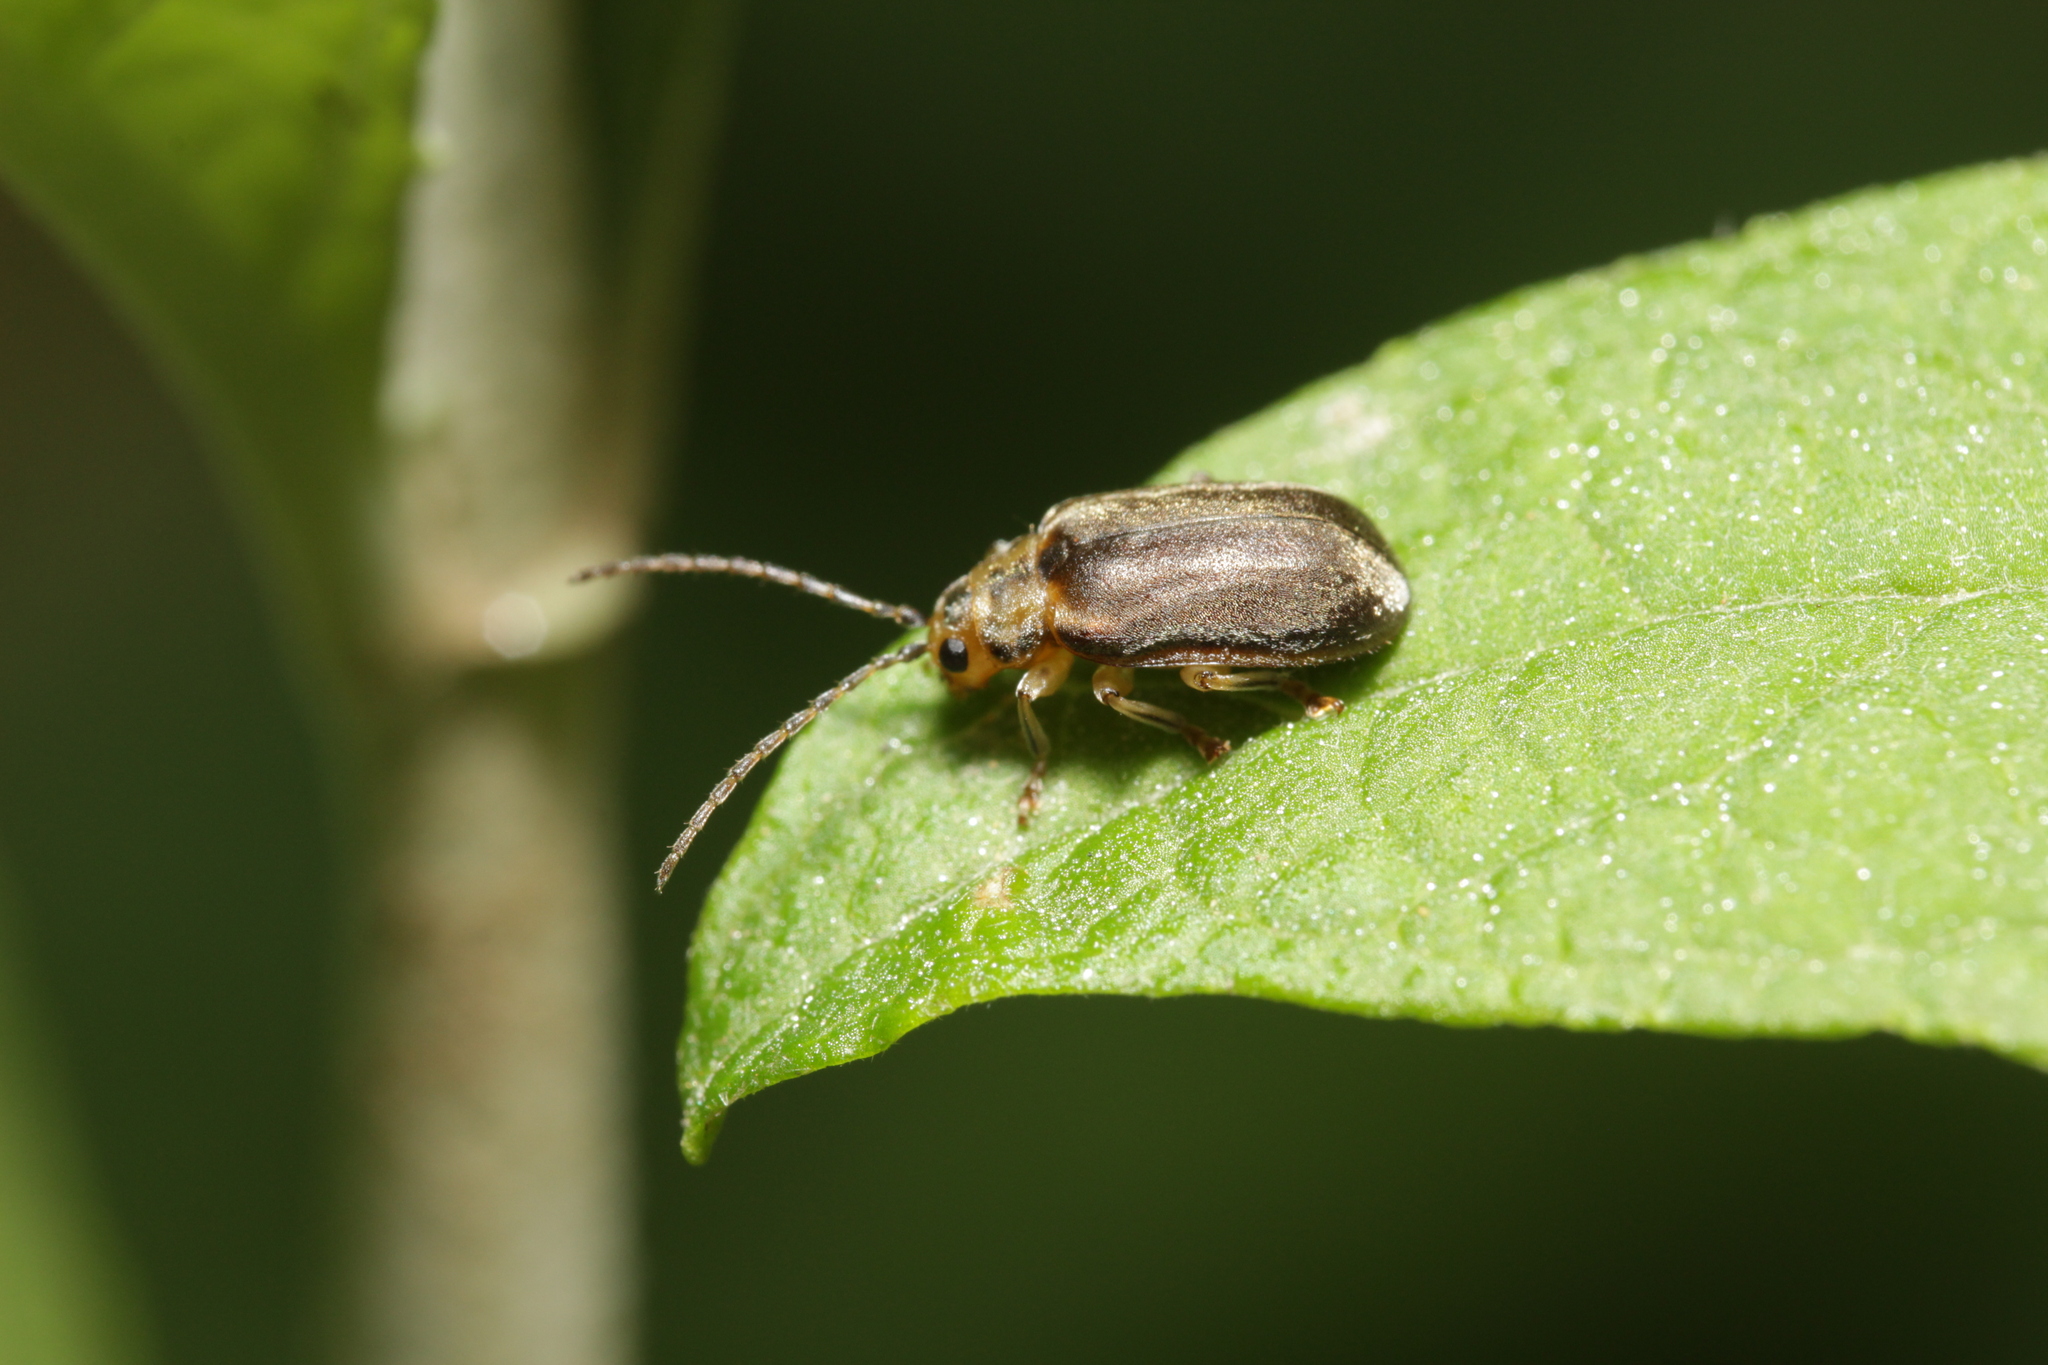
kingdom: Animalia
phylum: Arthropoda
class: Insecta
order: Coleoptera
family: Chrysomelidae
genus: Pyrrhalta
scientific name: Pyrrhalta viburni
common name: Guelder-rose leaf beetle
